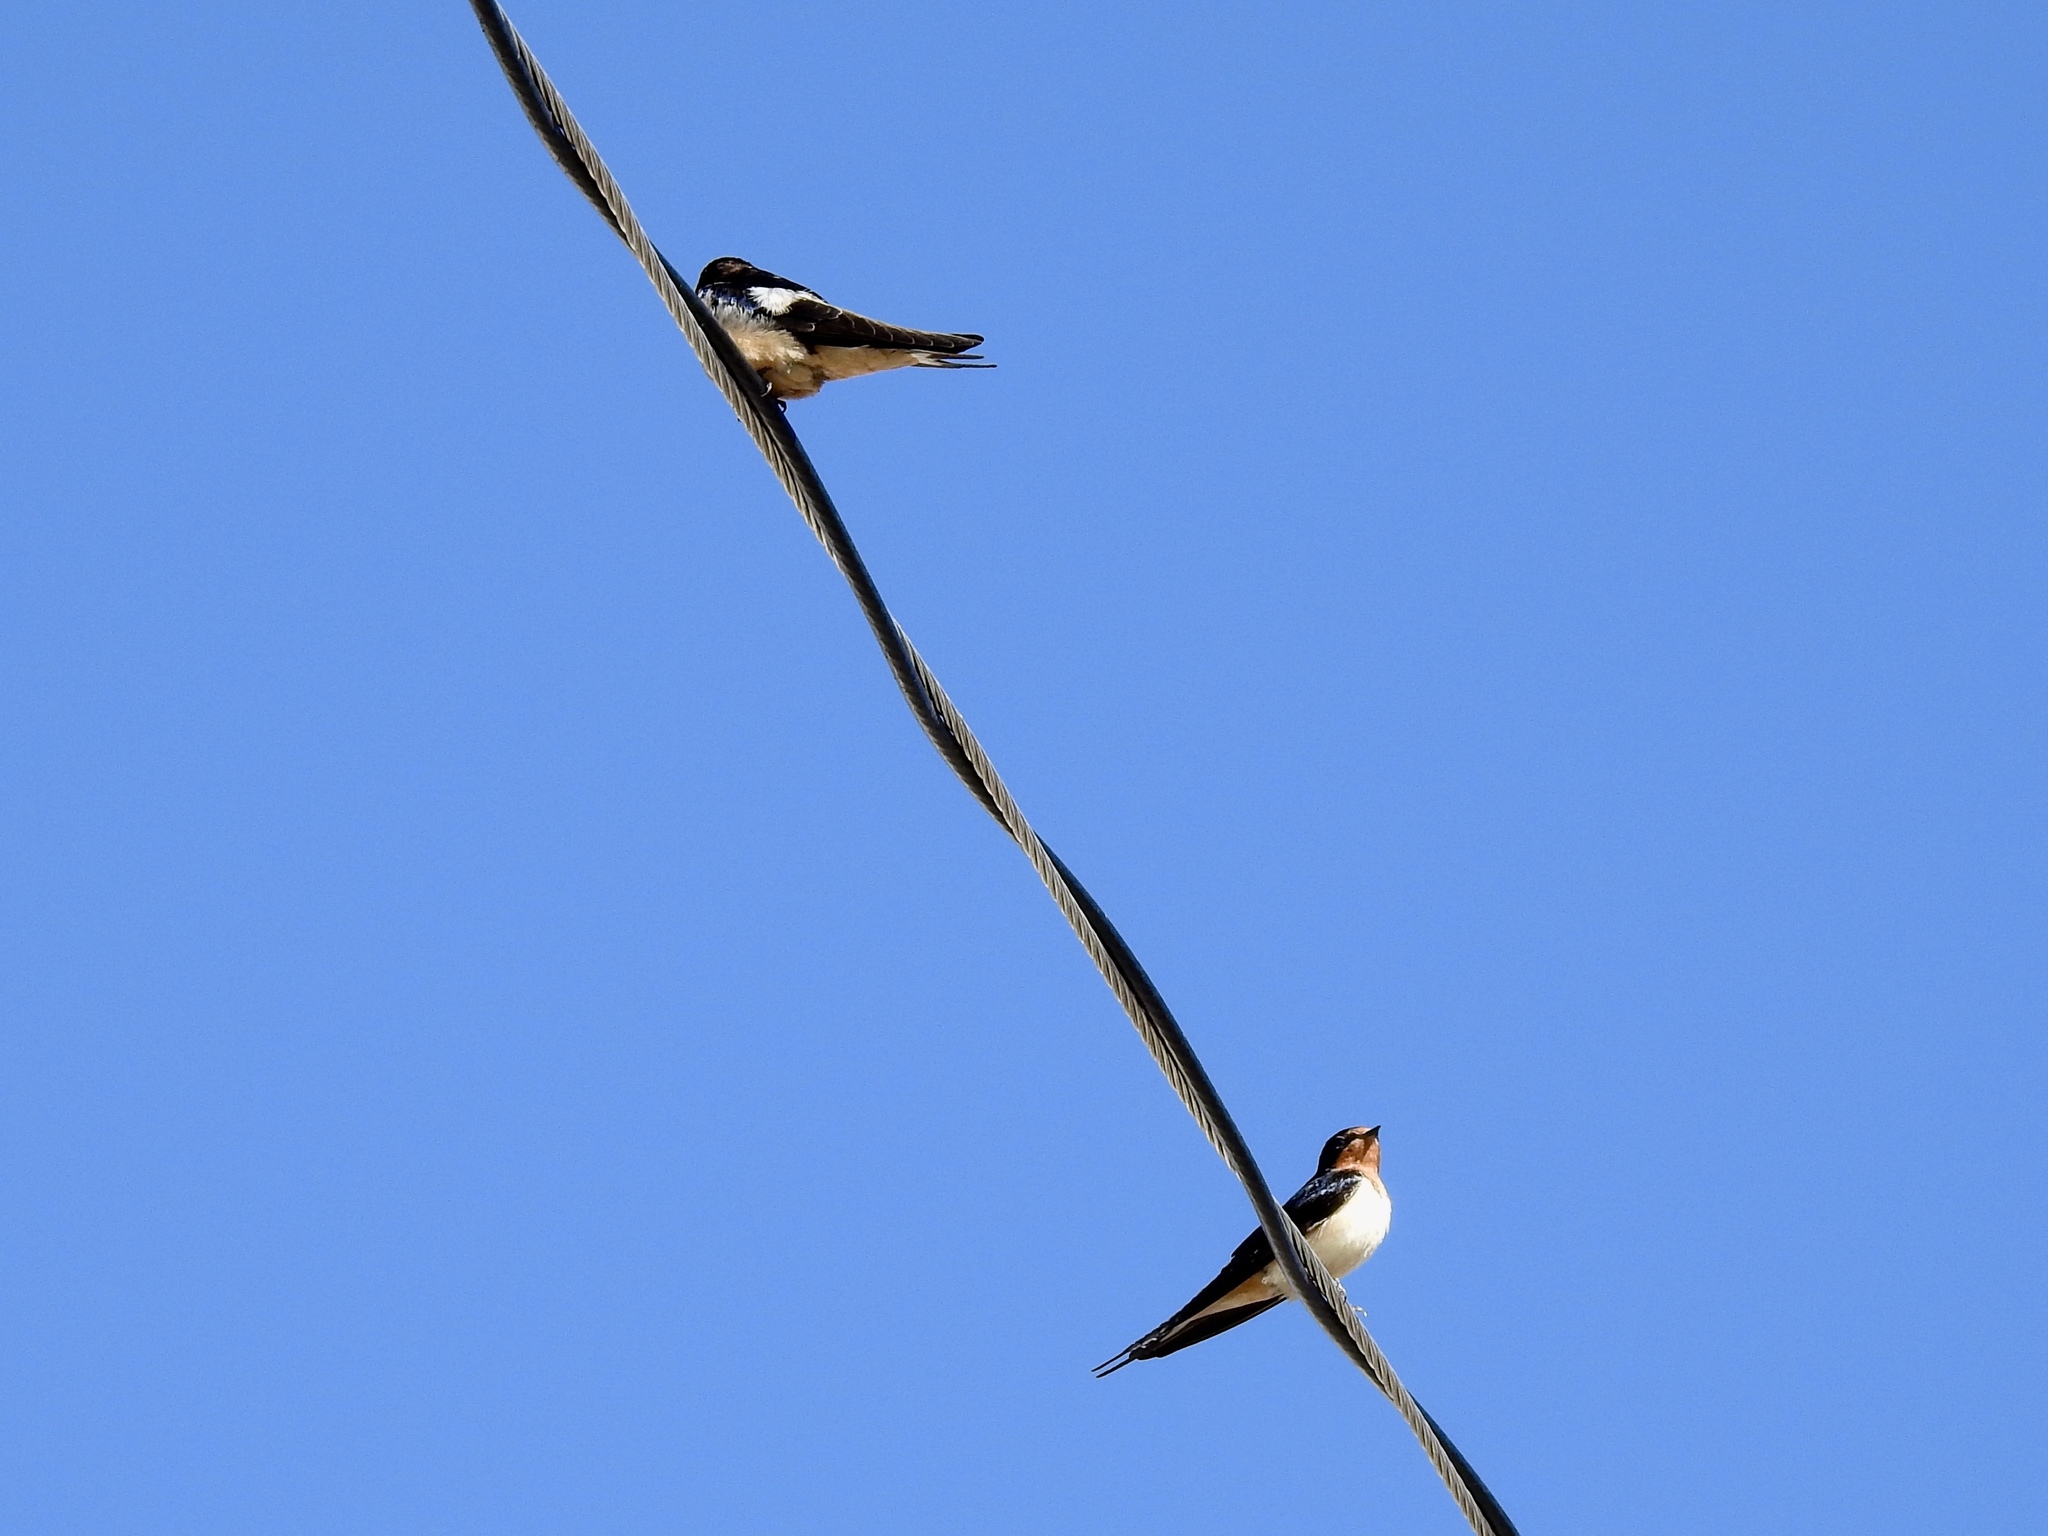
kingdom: Animalia
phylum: Chordata
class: Aves
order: Passeriformes
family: Hirundinidae
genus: Hirundo
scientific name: Hirundo rustica
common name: Barn swallow
